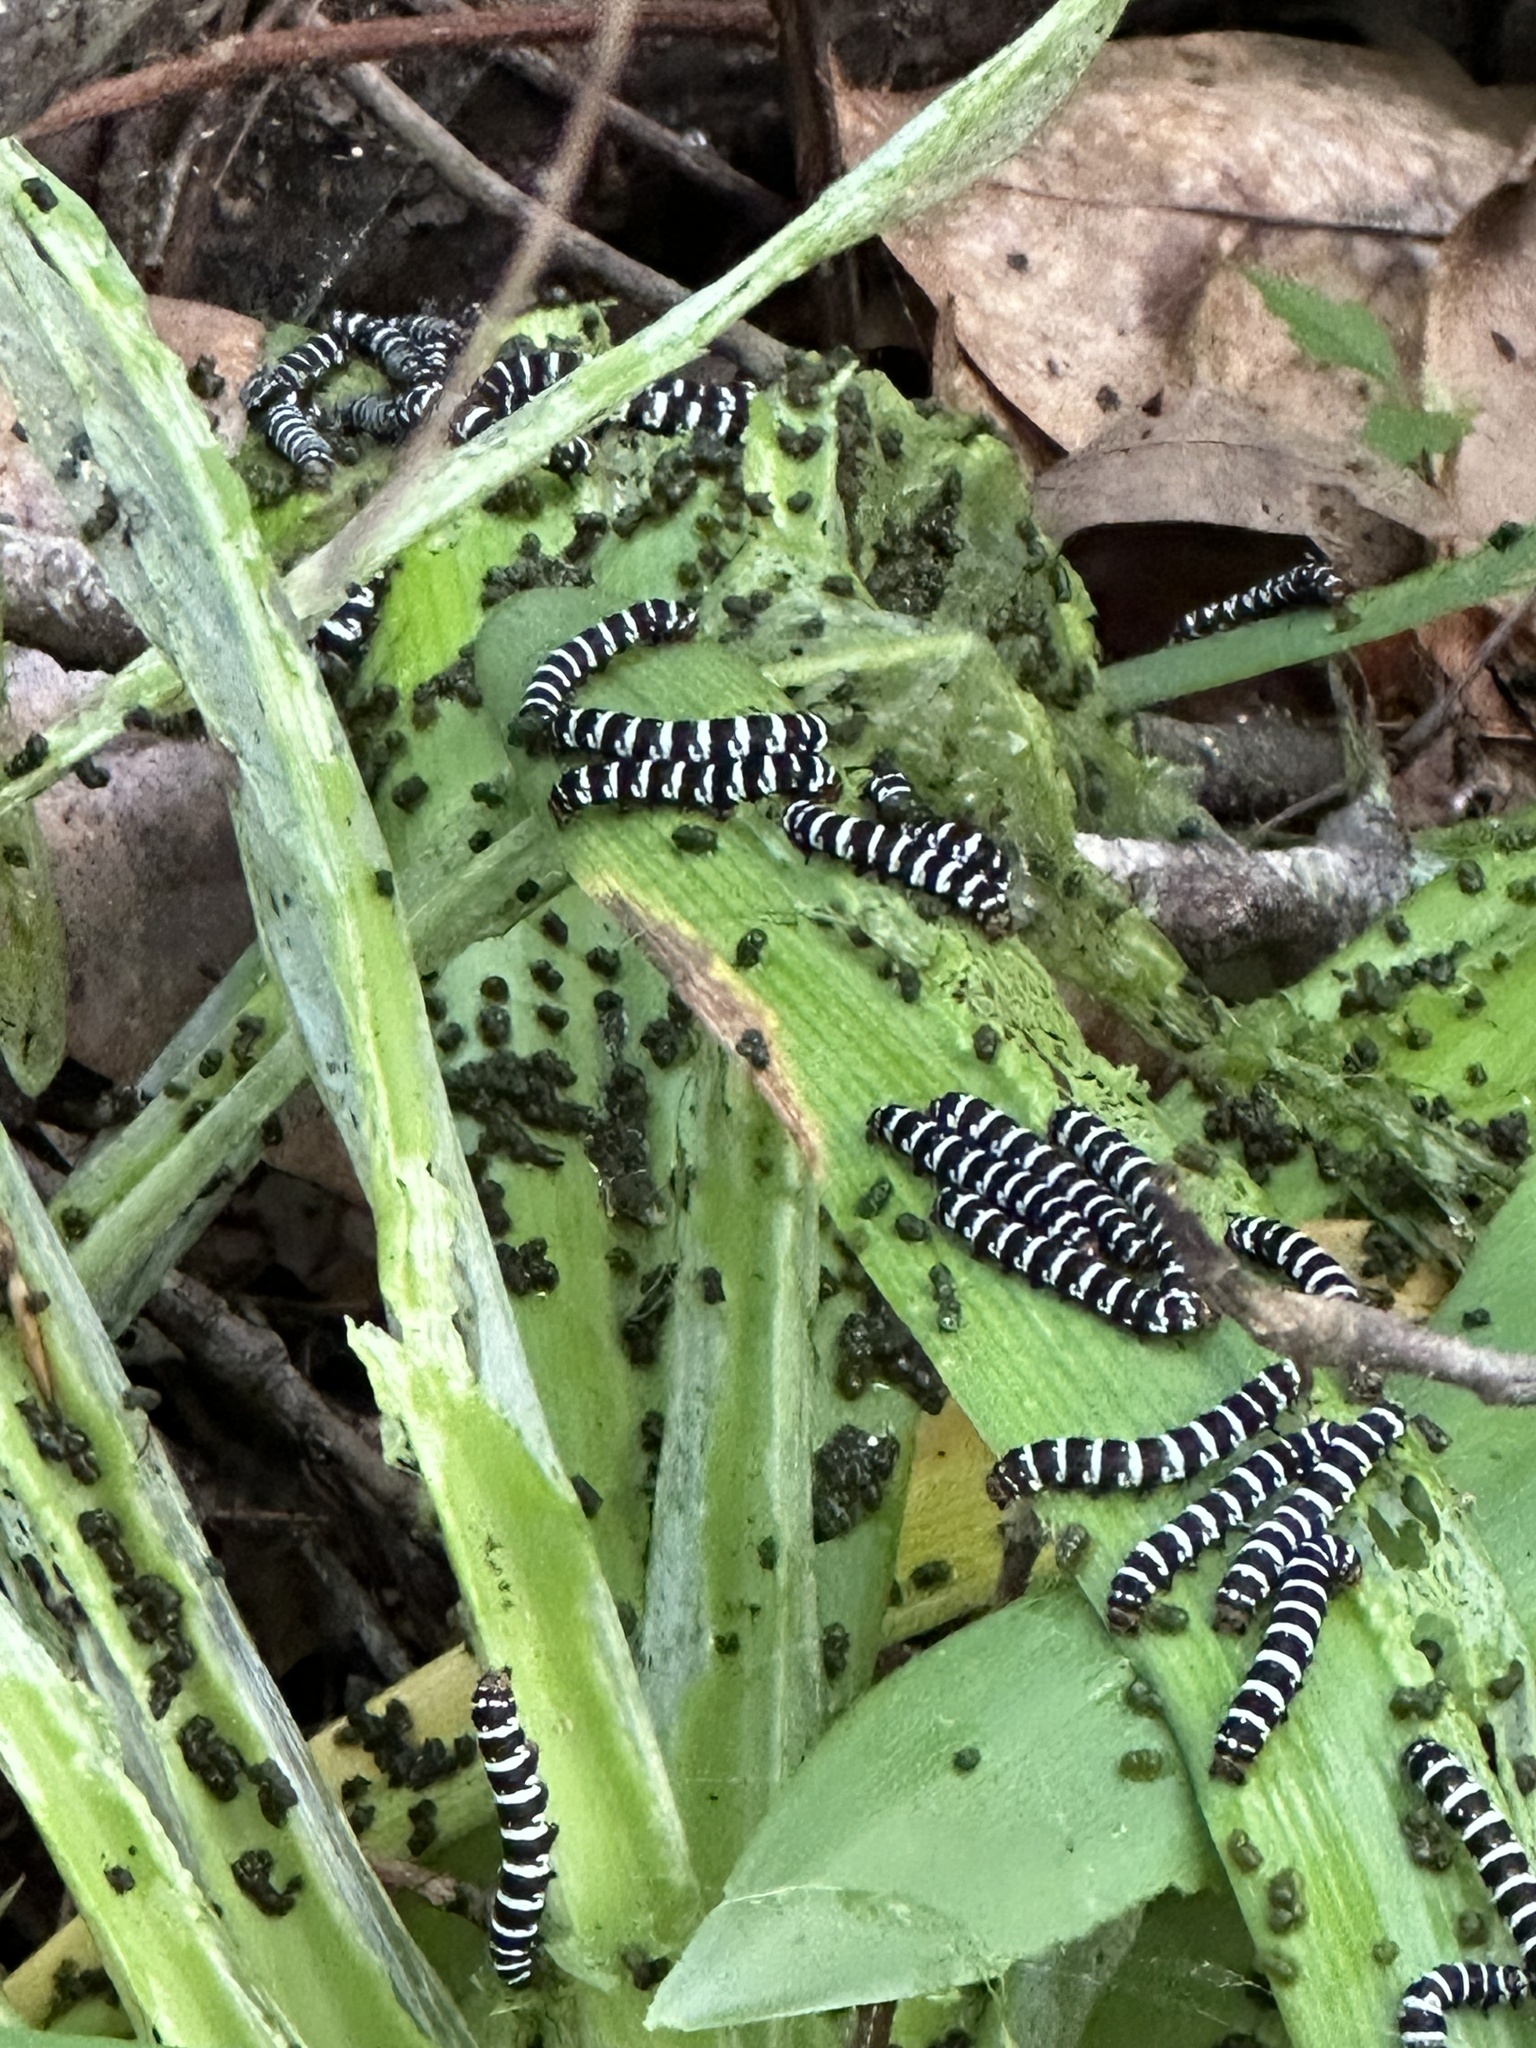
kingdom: Animalia
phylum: Arthropoda
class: Insecta
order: Lepidoptera
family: Noctuidae
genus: Xanthopastis
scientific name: Xanthopastis regnatrix
